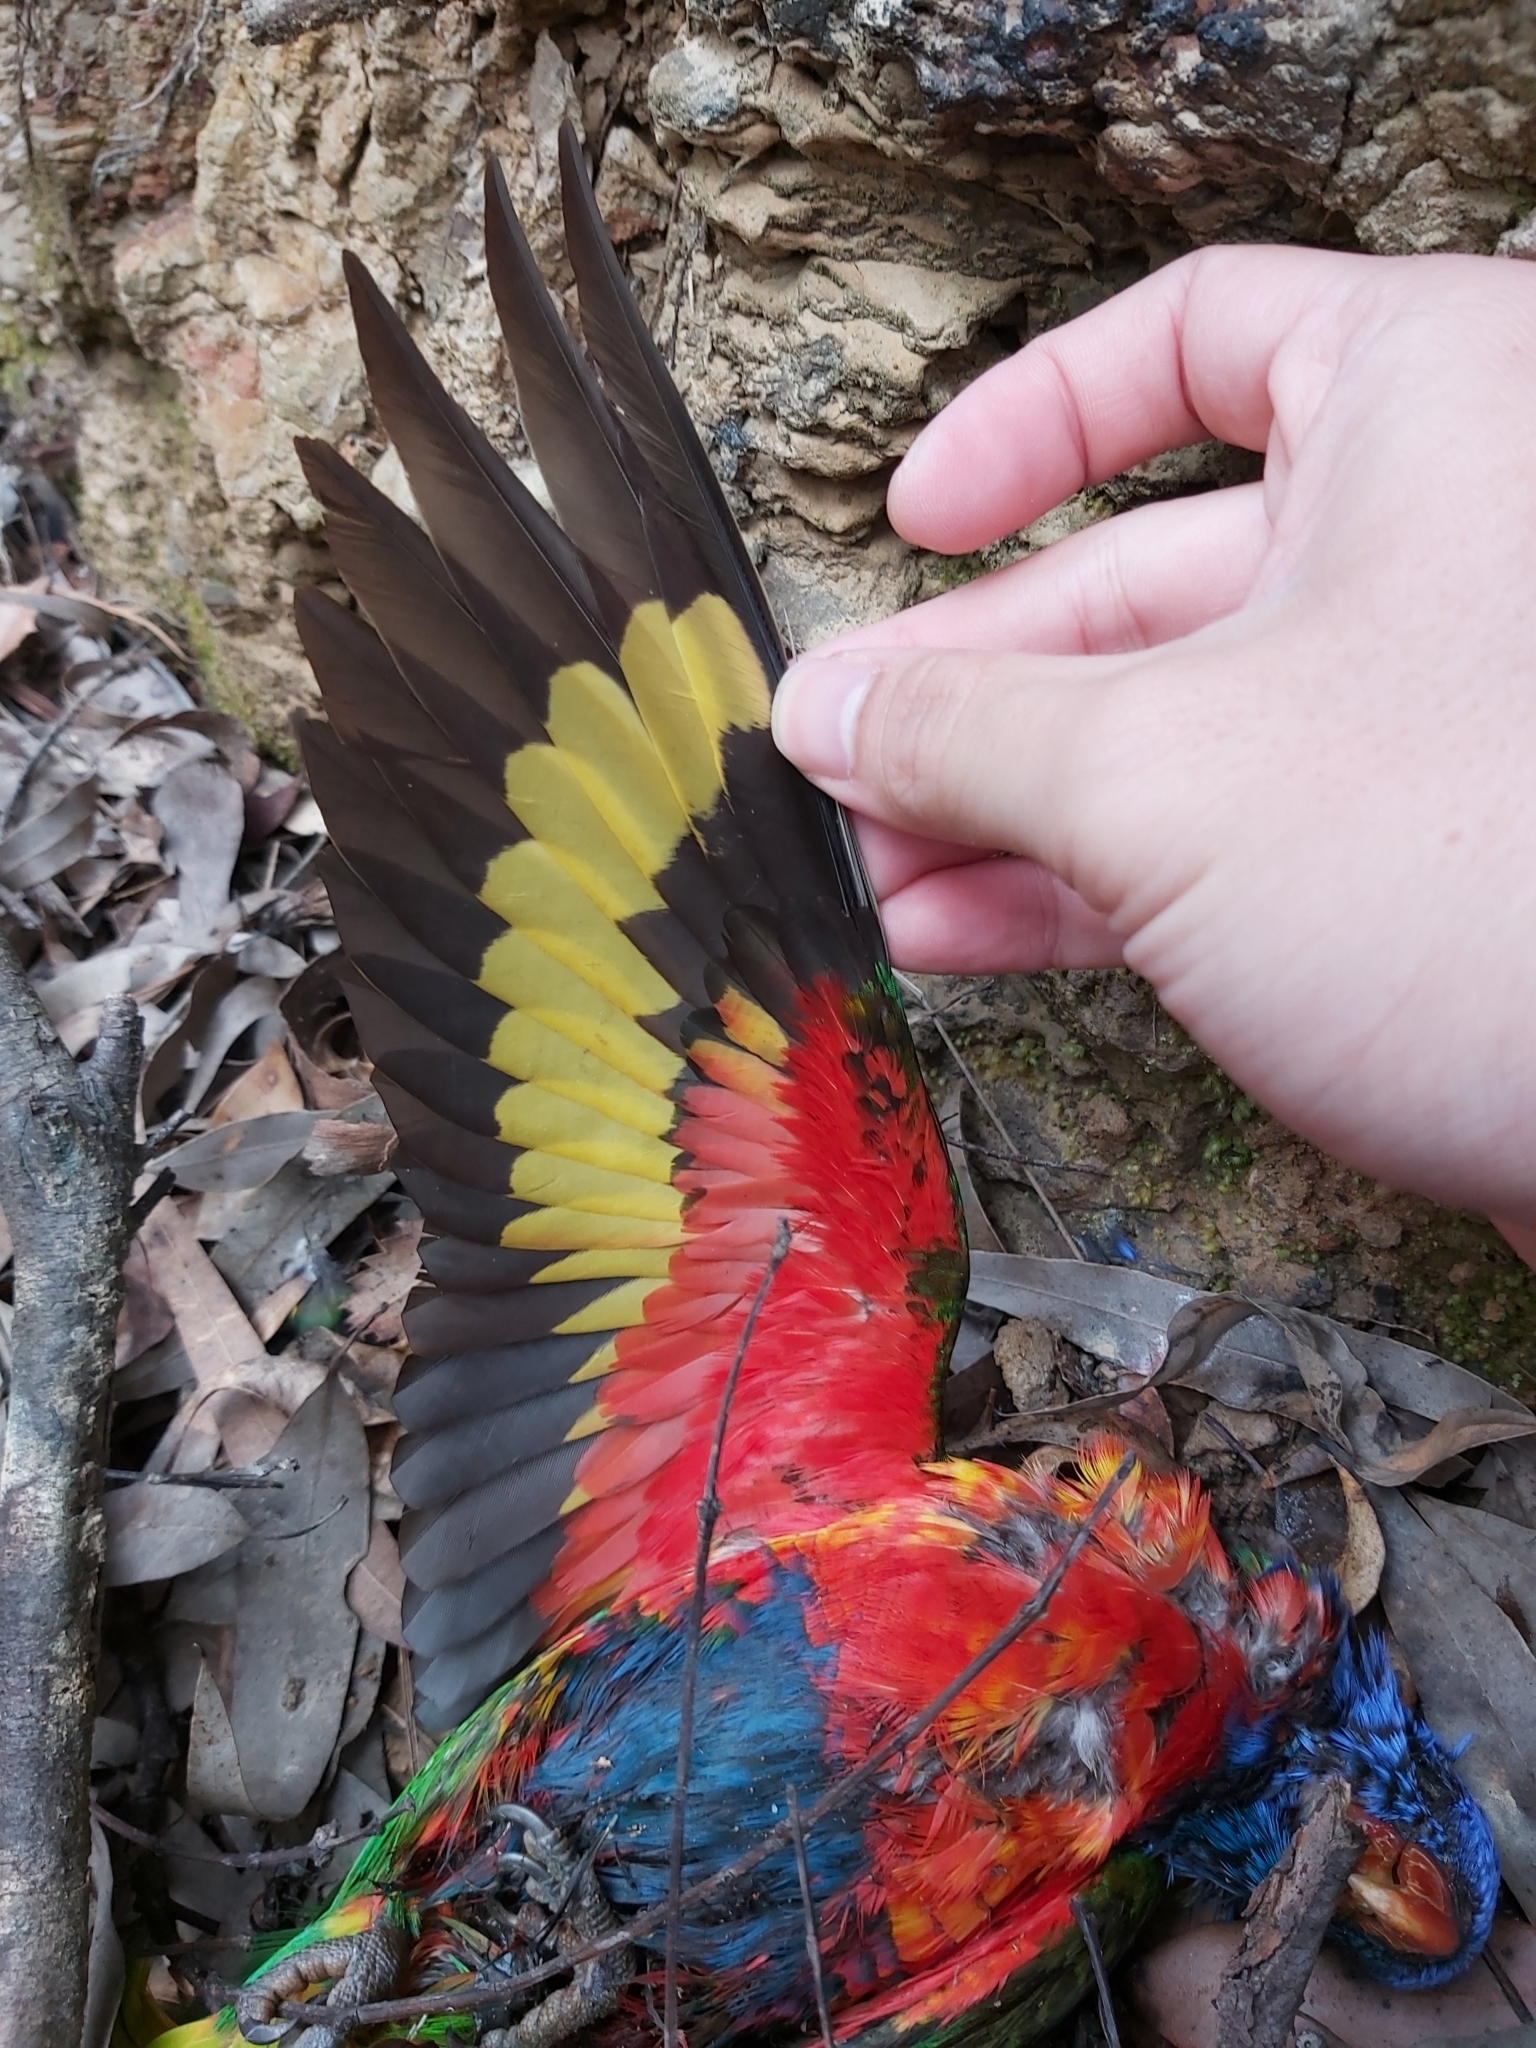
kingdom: Animalia
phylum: Chordata
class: Aves
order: Psittaciformes
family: Psittacidae
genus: Trichoglossus
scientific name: Trichoglossus haematodus
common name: Coconut lorikeet
